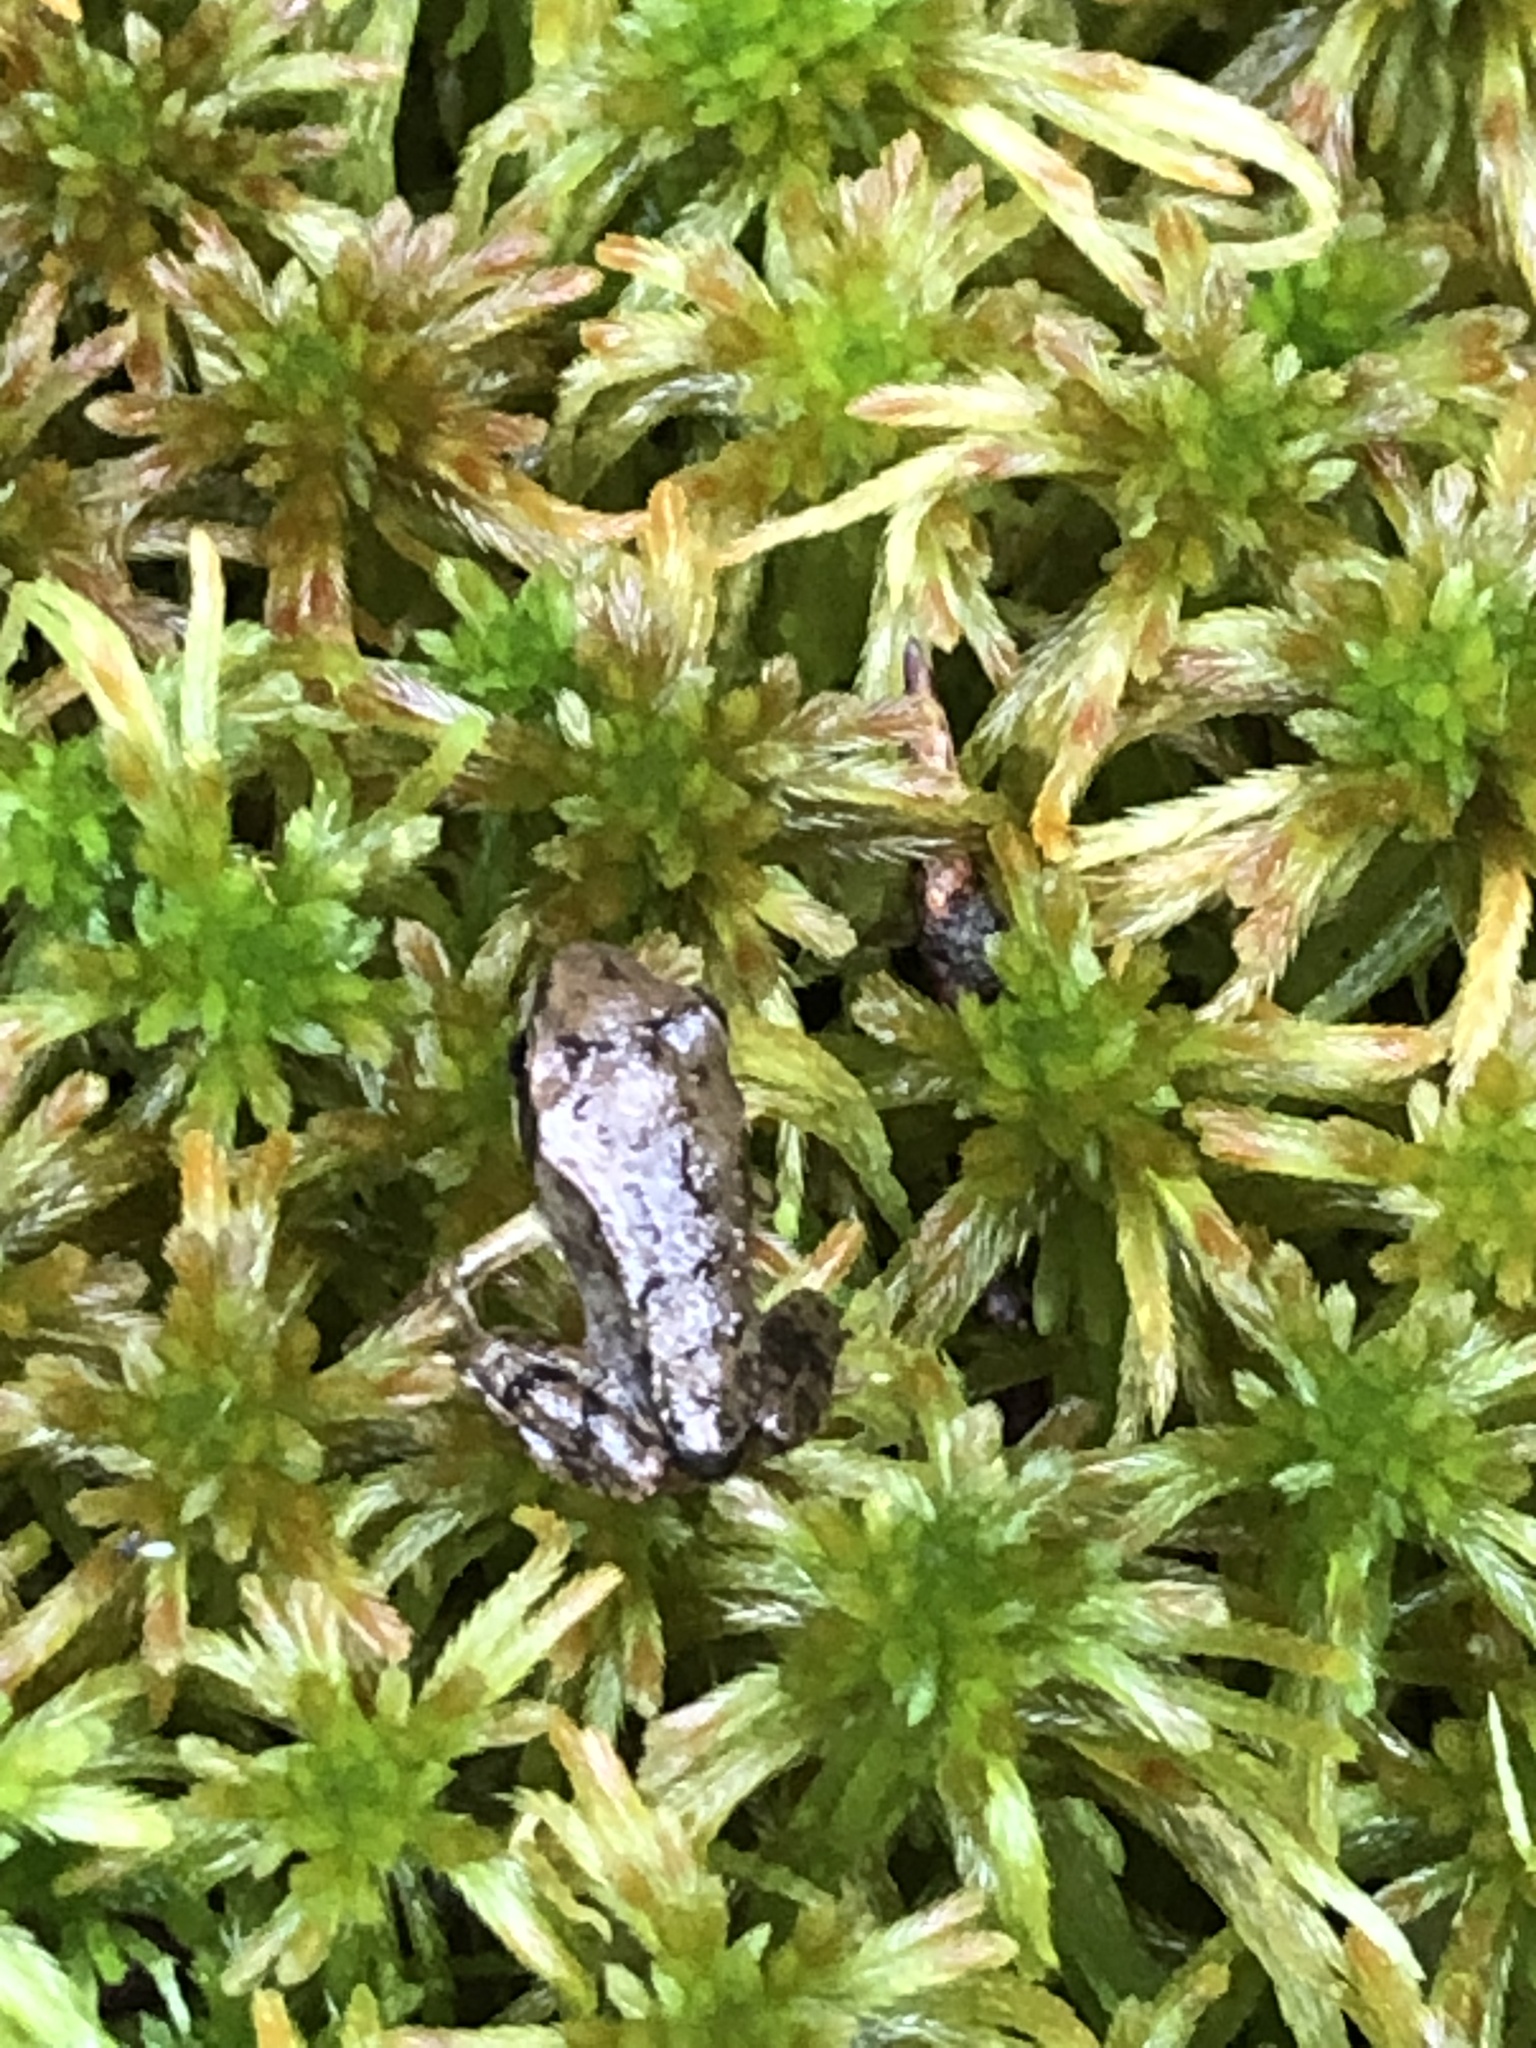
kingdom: Animalia
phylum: Chordata
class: Amphibia
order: Anura
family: Ranidae
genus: Lithobates
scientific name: Lithobates sylvaticus
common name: Wood frog
